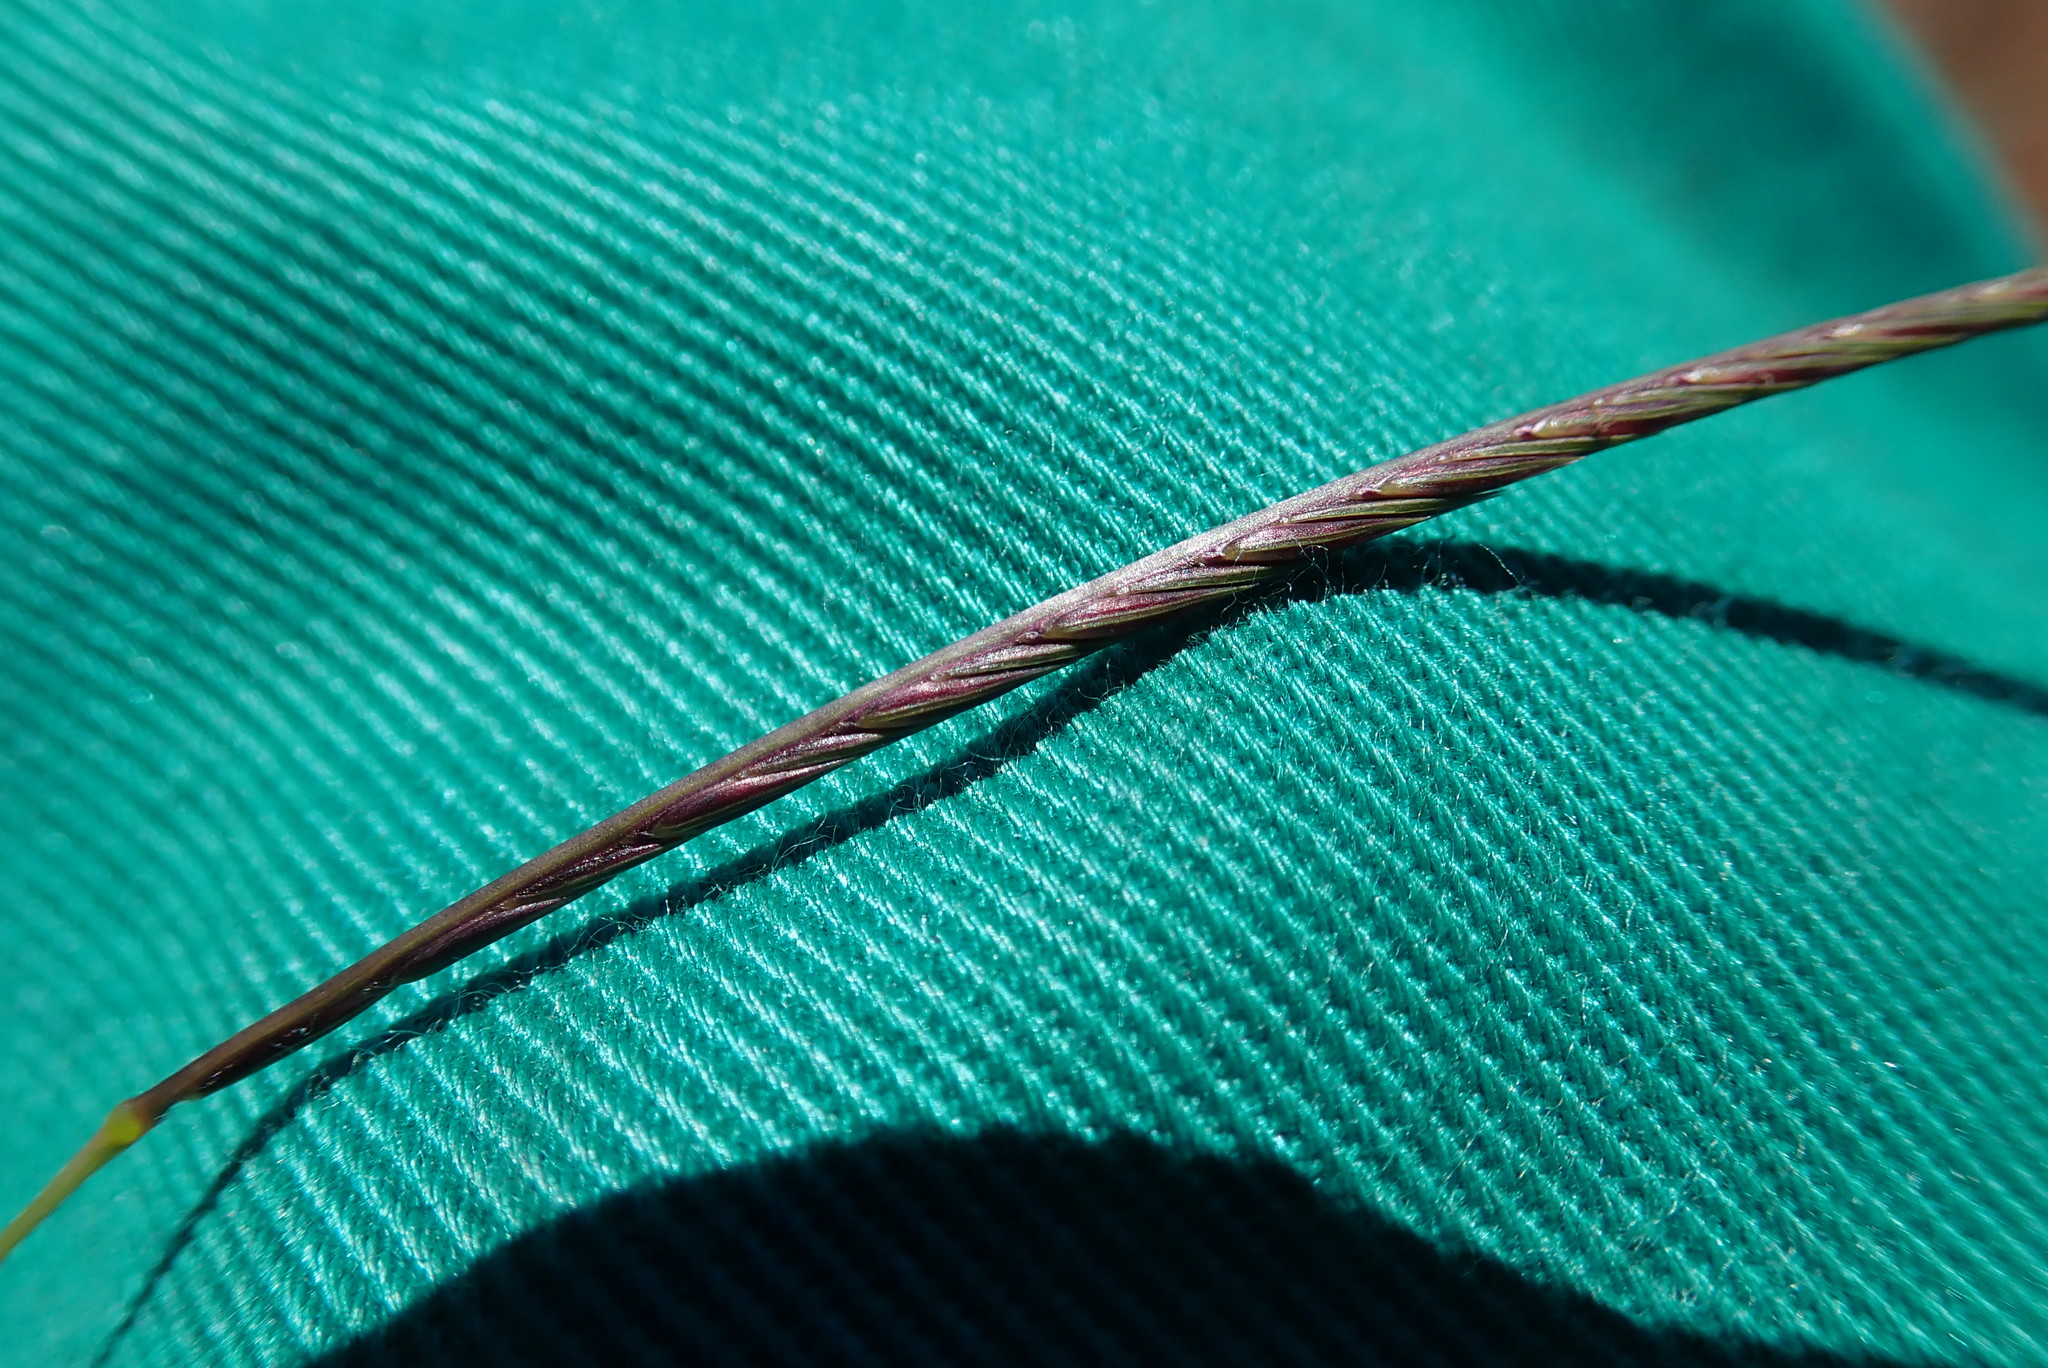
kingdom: Plantae
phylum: Tracheophyta
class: Liliopsida
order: Poales
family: Poaceae
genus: Microchloa
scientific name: Microchloa caffra
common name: Pincushion grass
